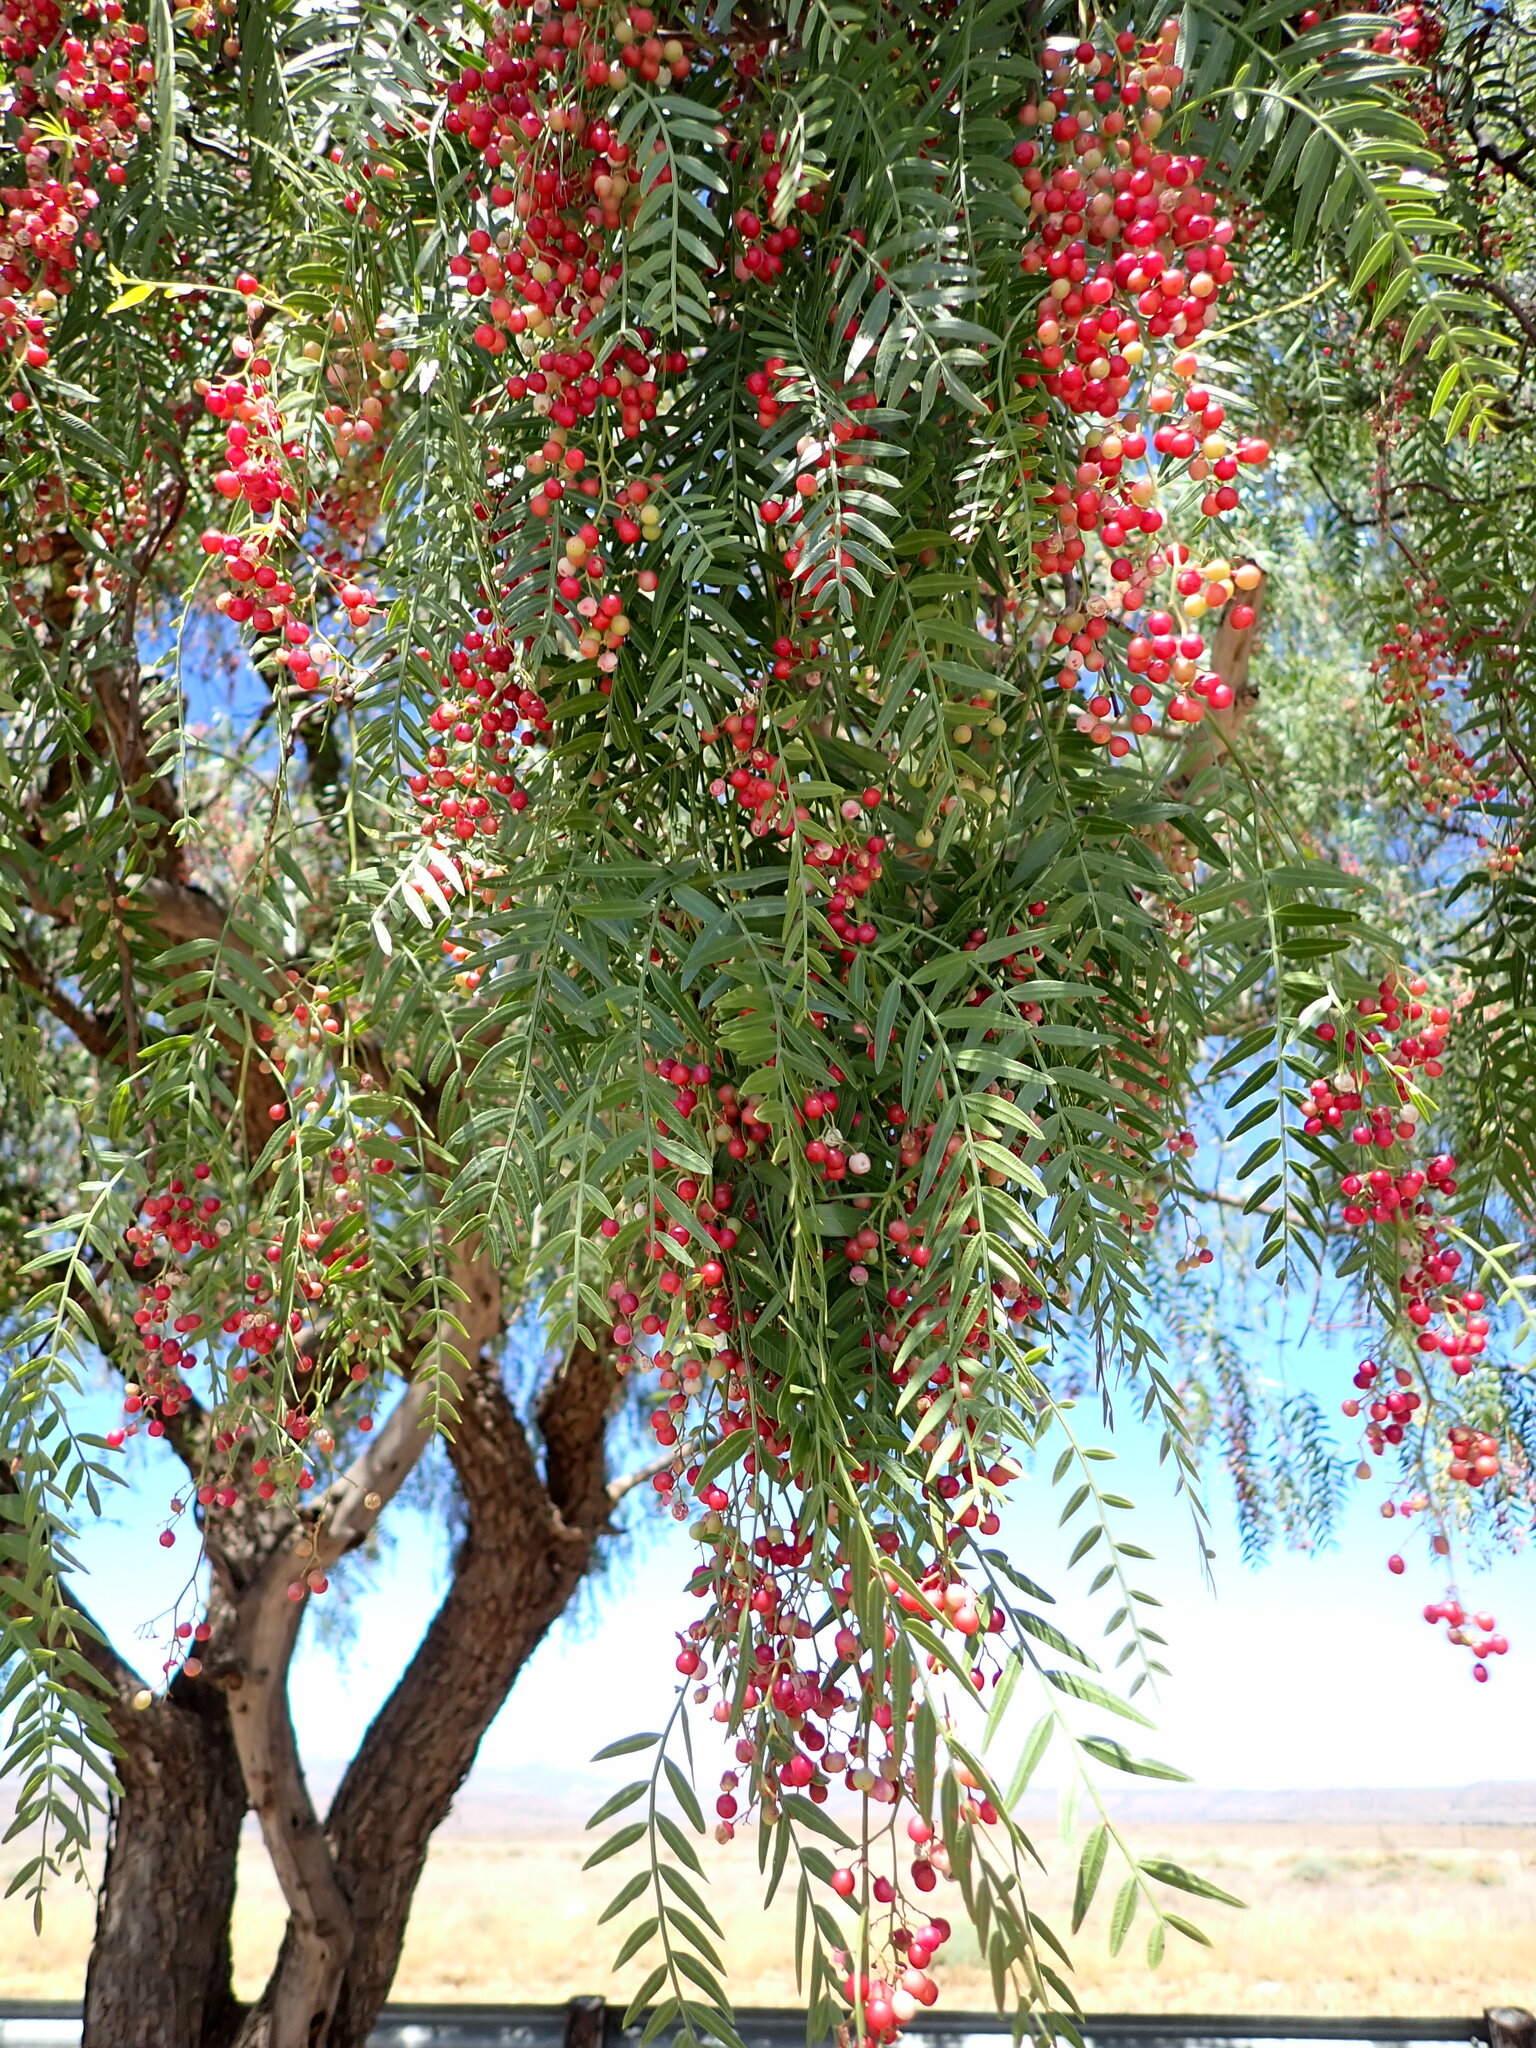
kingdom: Plantae
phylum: Tracheophyta
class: Magnoliopsida
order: Sapindales
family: Anacardiaceae
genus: Schinus
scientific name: Schinus molle
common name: Peruvian peppertree
